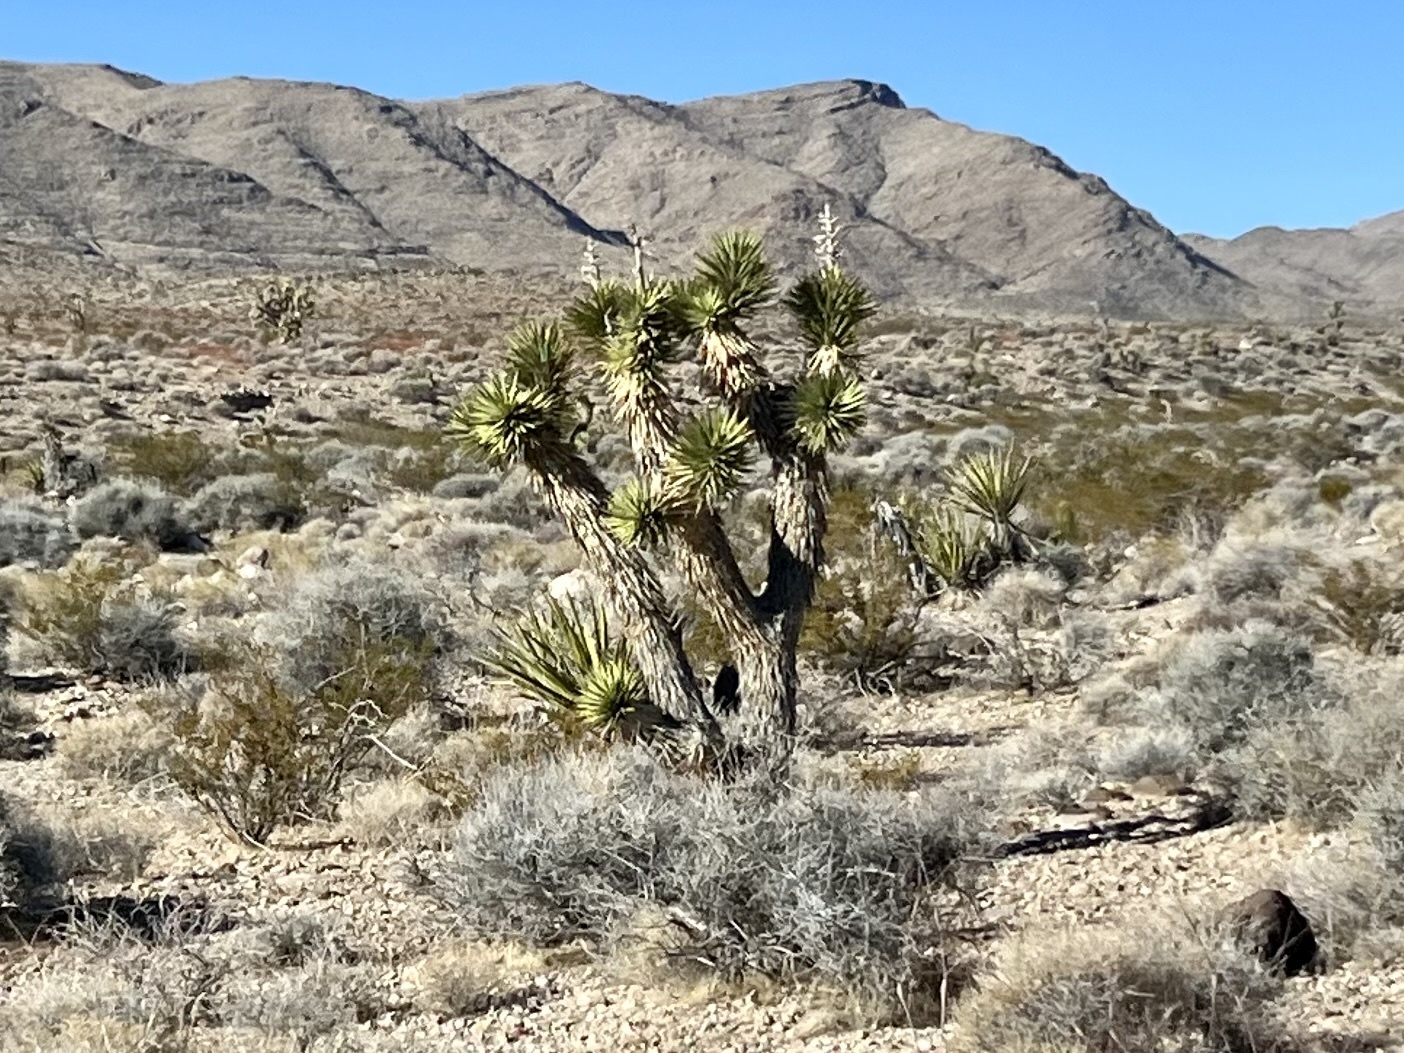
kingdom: Plantae
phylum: Tracheophyta
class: Liliopsida
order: Asparagales
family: Asparagaceae
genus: Yucca
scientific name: Yucca brevifolia
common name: Joshua tree
